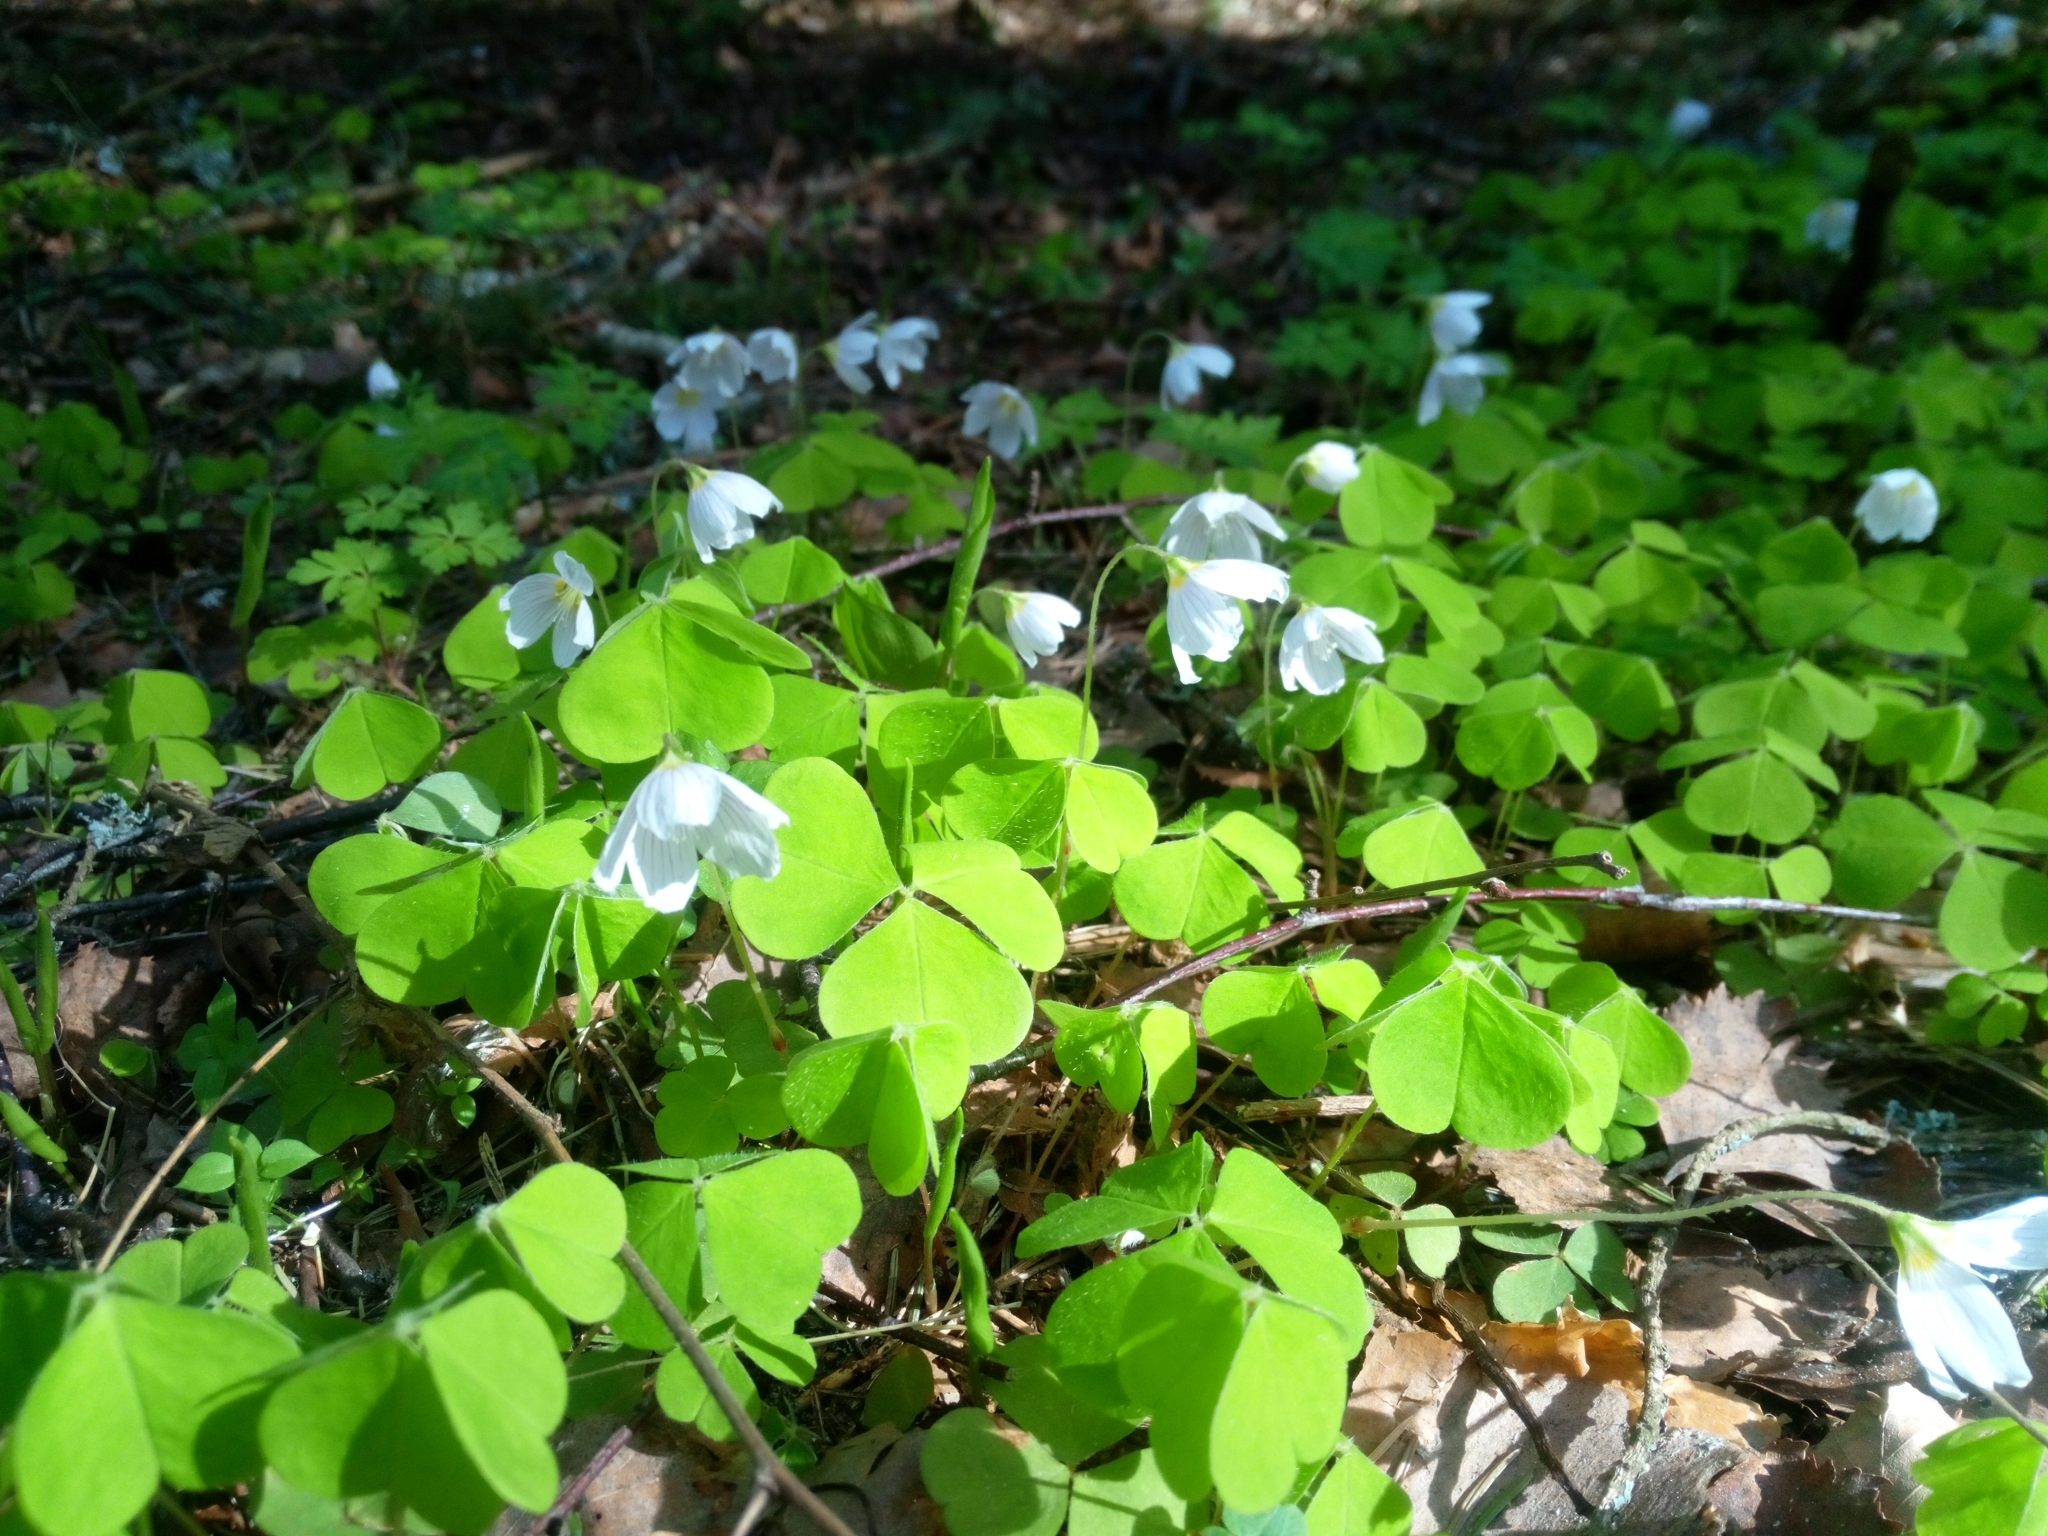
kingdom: Plantae
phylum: Tracheophyta
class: Magnoliopsida
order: Oxalidales
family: Oxalidaceae
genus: Oxalis
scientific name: Oxalis acetosella
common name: Wood-sorrel
